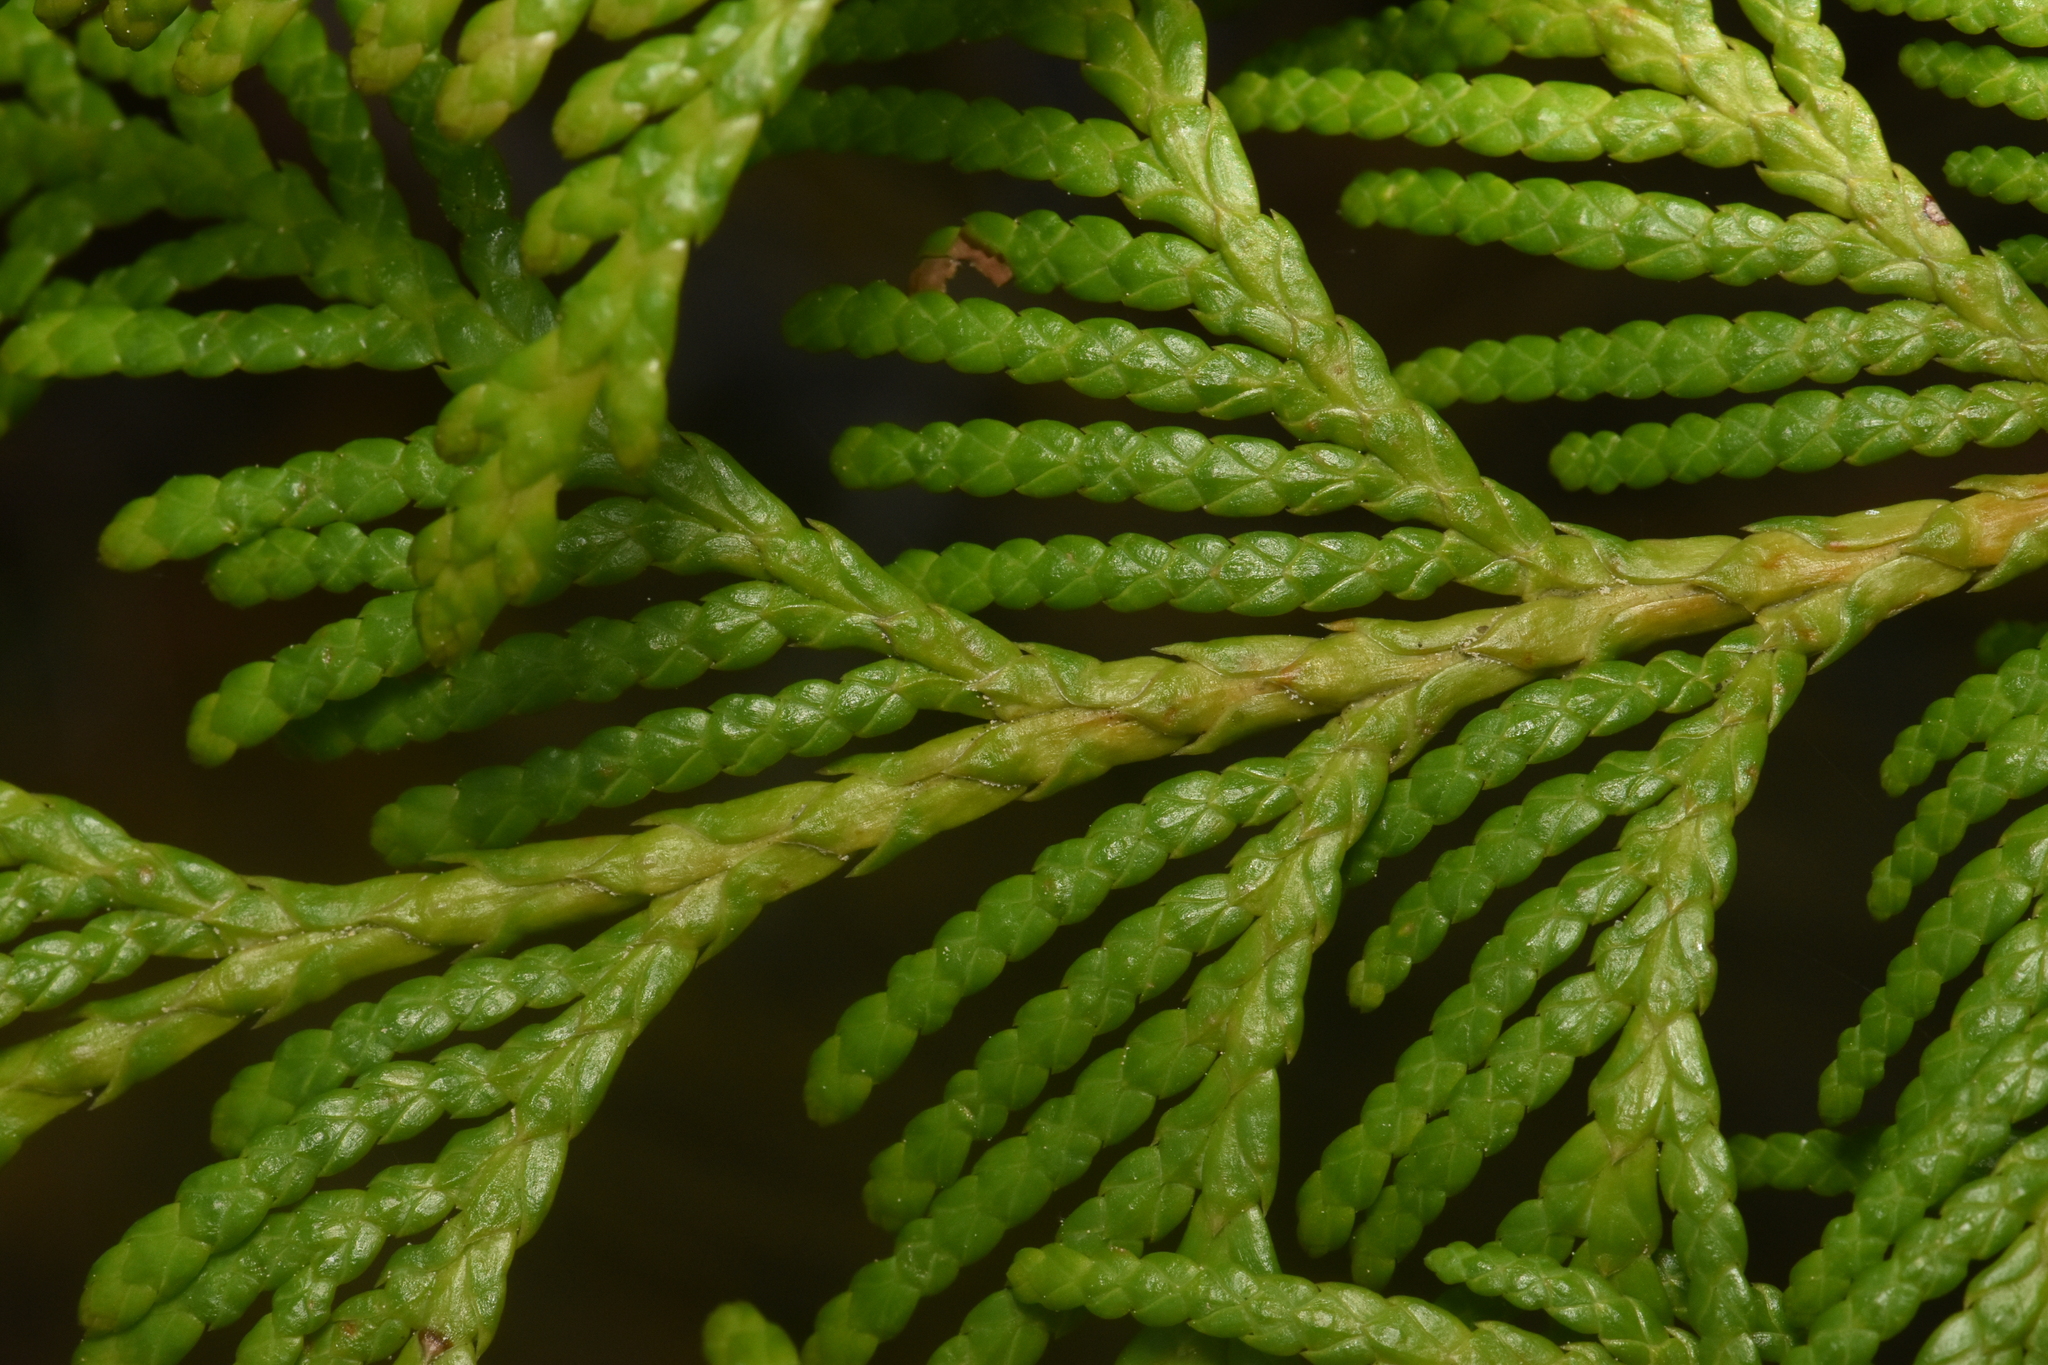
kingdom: Plantae
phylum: Tracheophyta
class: Pinopsida
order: Pinales
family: Cupressaceae
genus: Thuja
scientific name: Thuja plicata
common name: Western red-cedar
